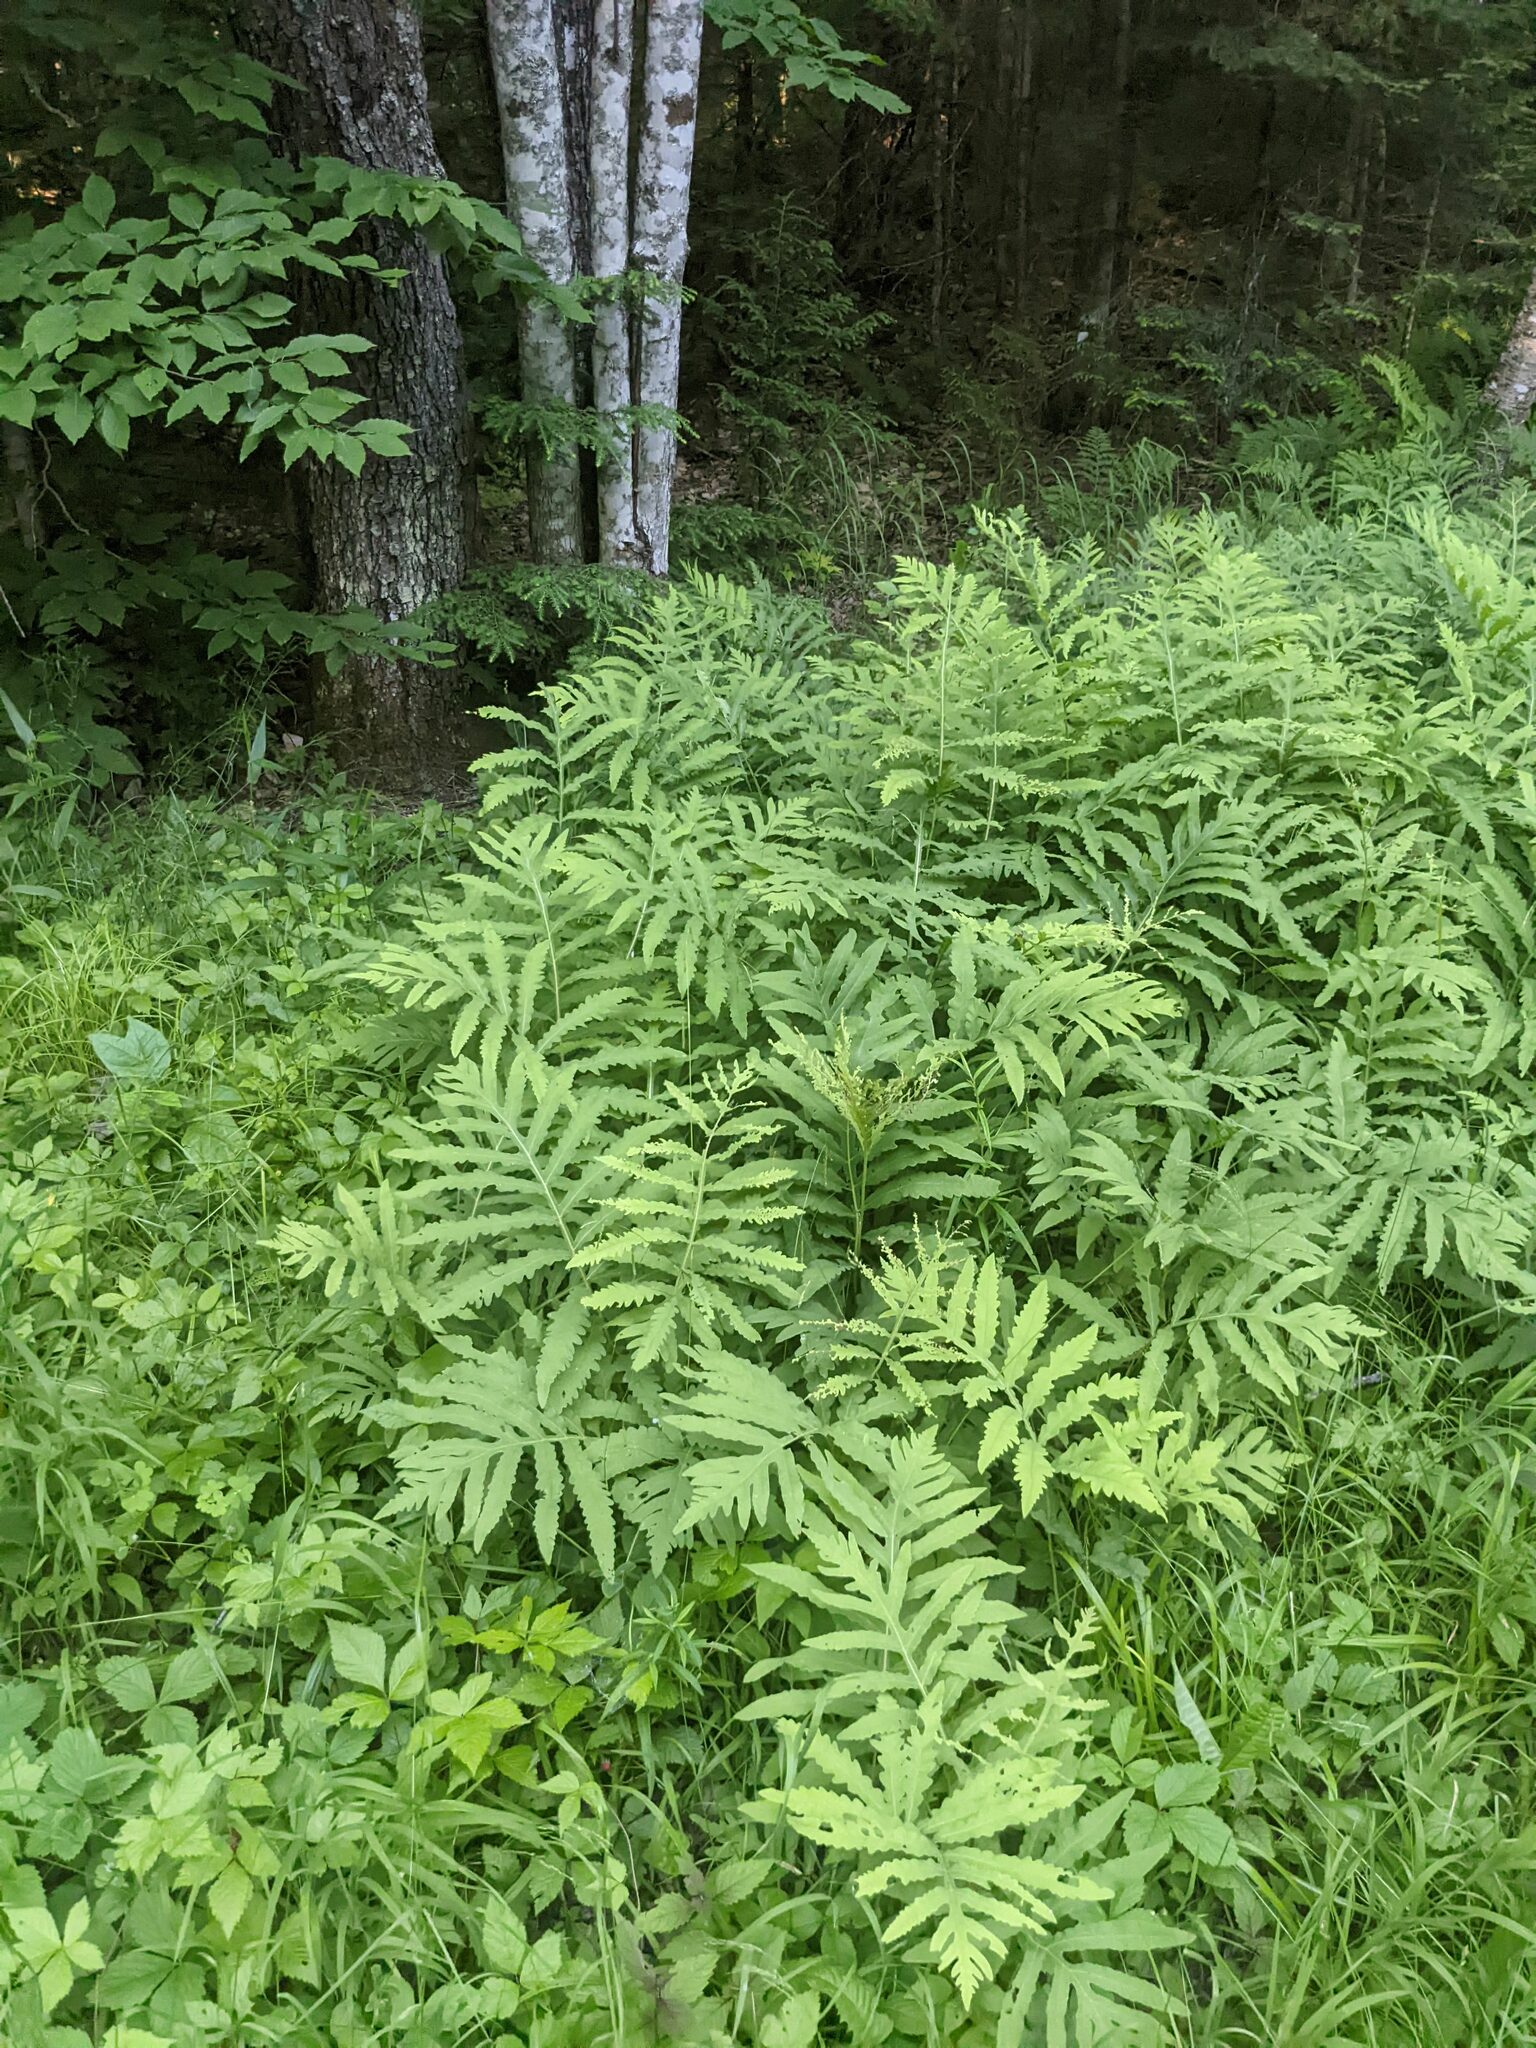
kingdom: Plantae
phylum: Tracheophyta
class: Polypodiopsida
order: Polypodiales
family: Onocleaceae
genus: Onoclea
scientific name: Onoclea sensibilis
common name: Sensitive fern
